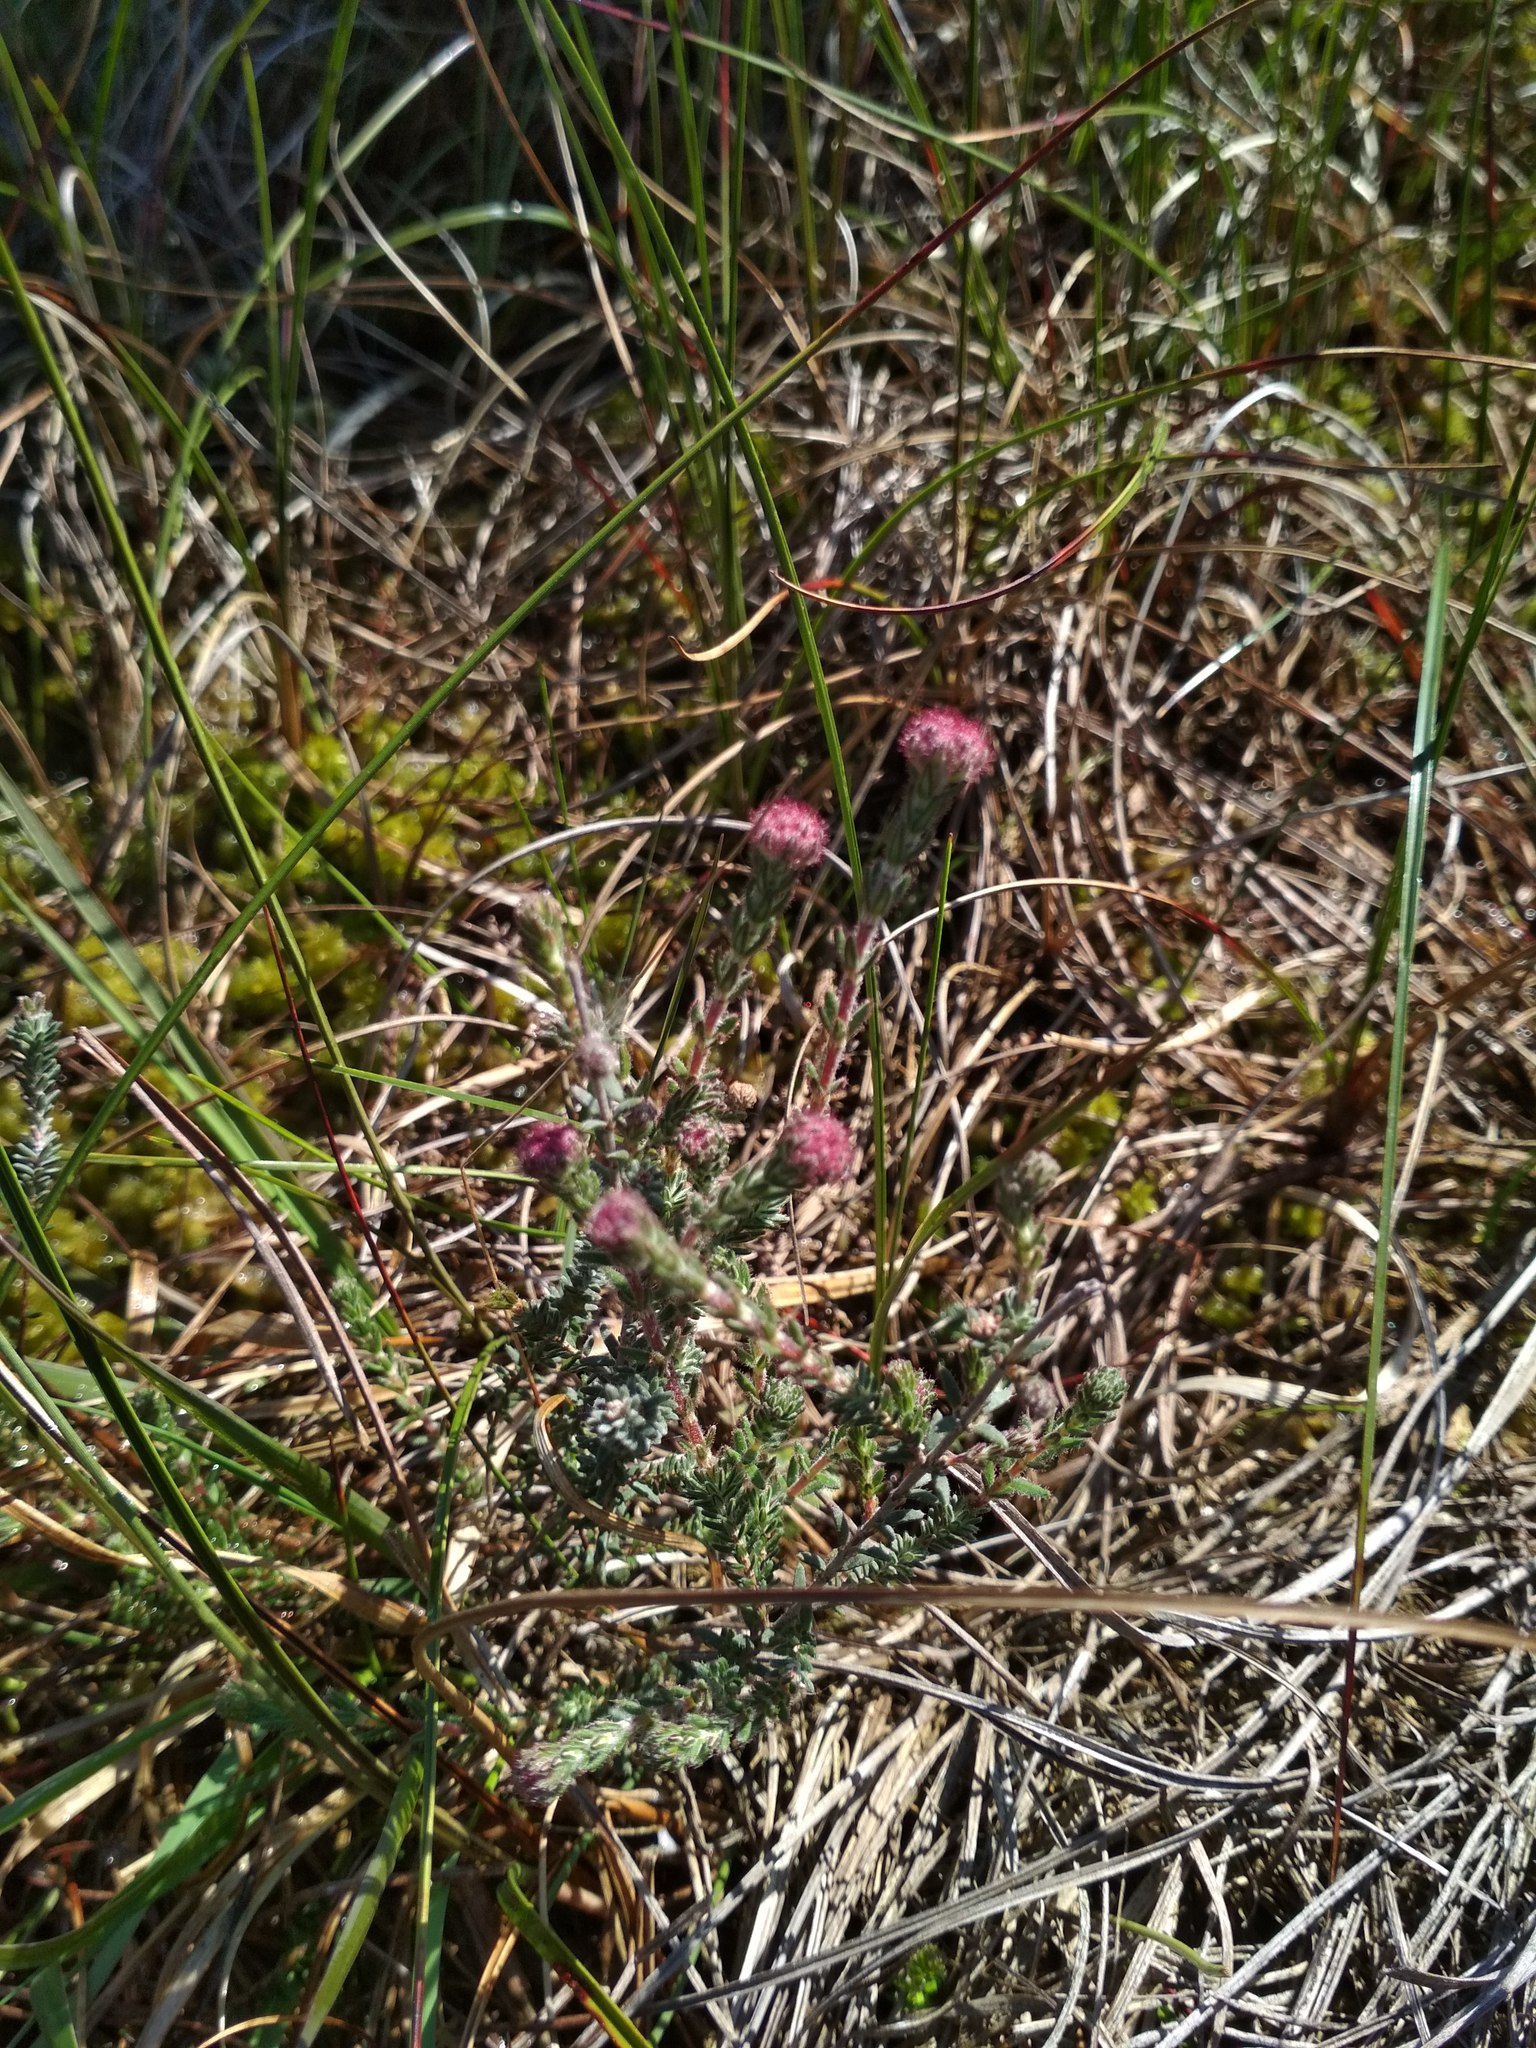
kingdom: Plantae
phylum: Tracheophyta
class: Magnoliopsida
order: Ericales
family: Ericaceae
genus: Erica
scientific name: Erica tetralix
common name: Cross-leaved heath
